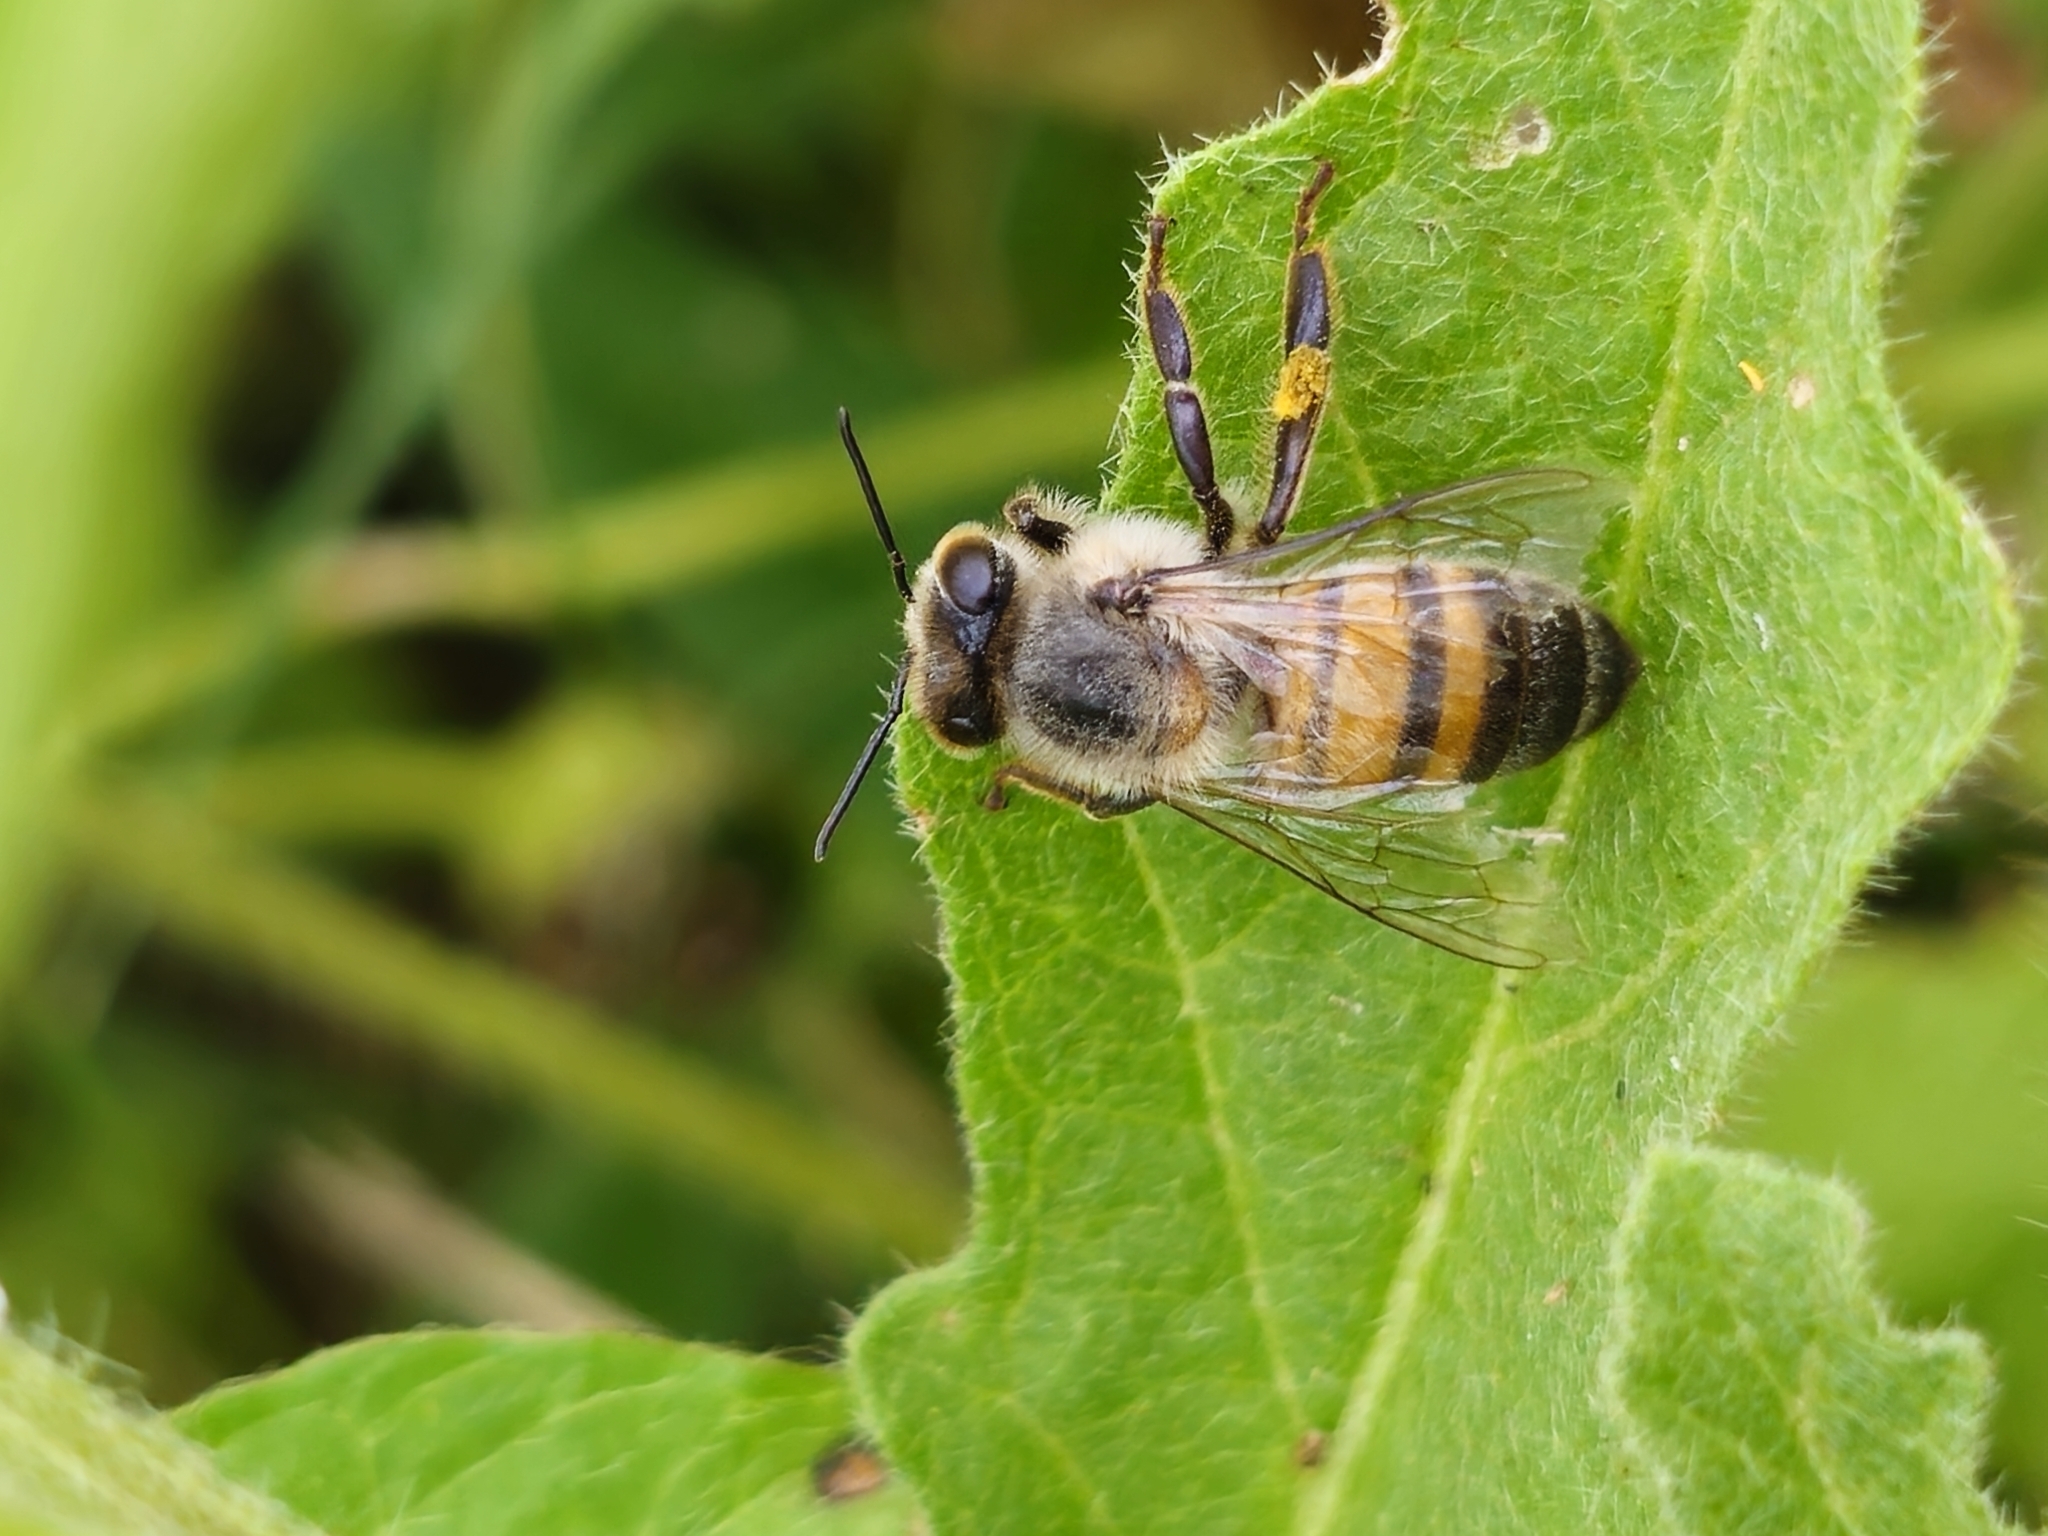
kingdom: Animalia
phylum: Arthropoda
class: Insecta
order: Hymenoptera
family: Apidae
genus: Apis
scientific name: Apis mellifera
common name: Honey bee
